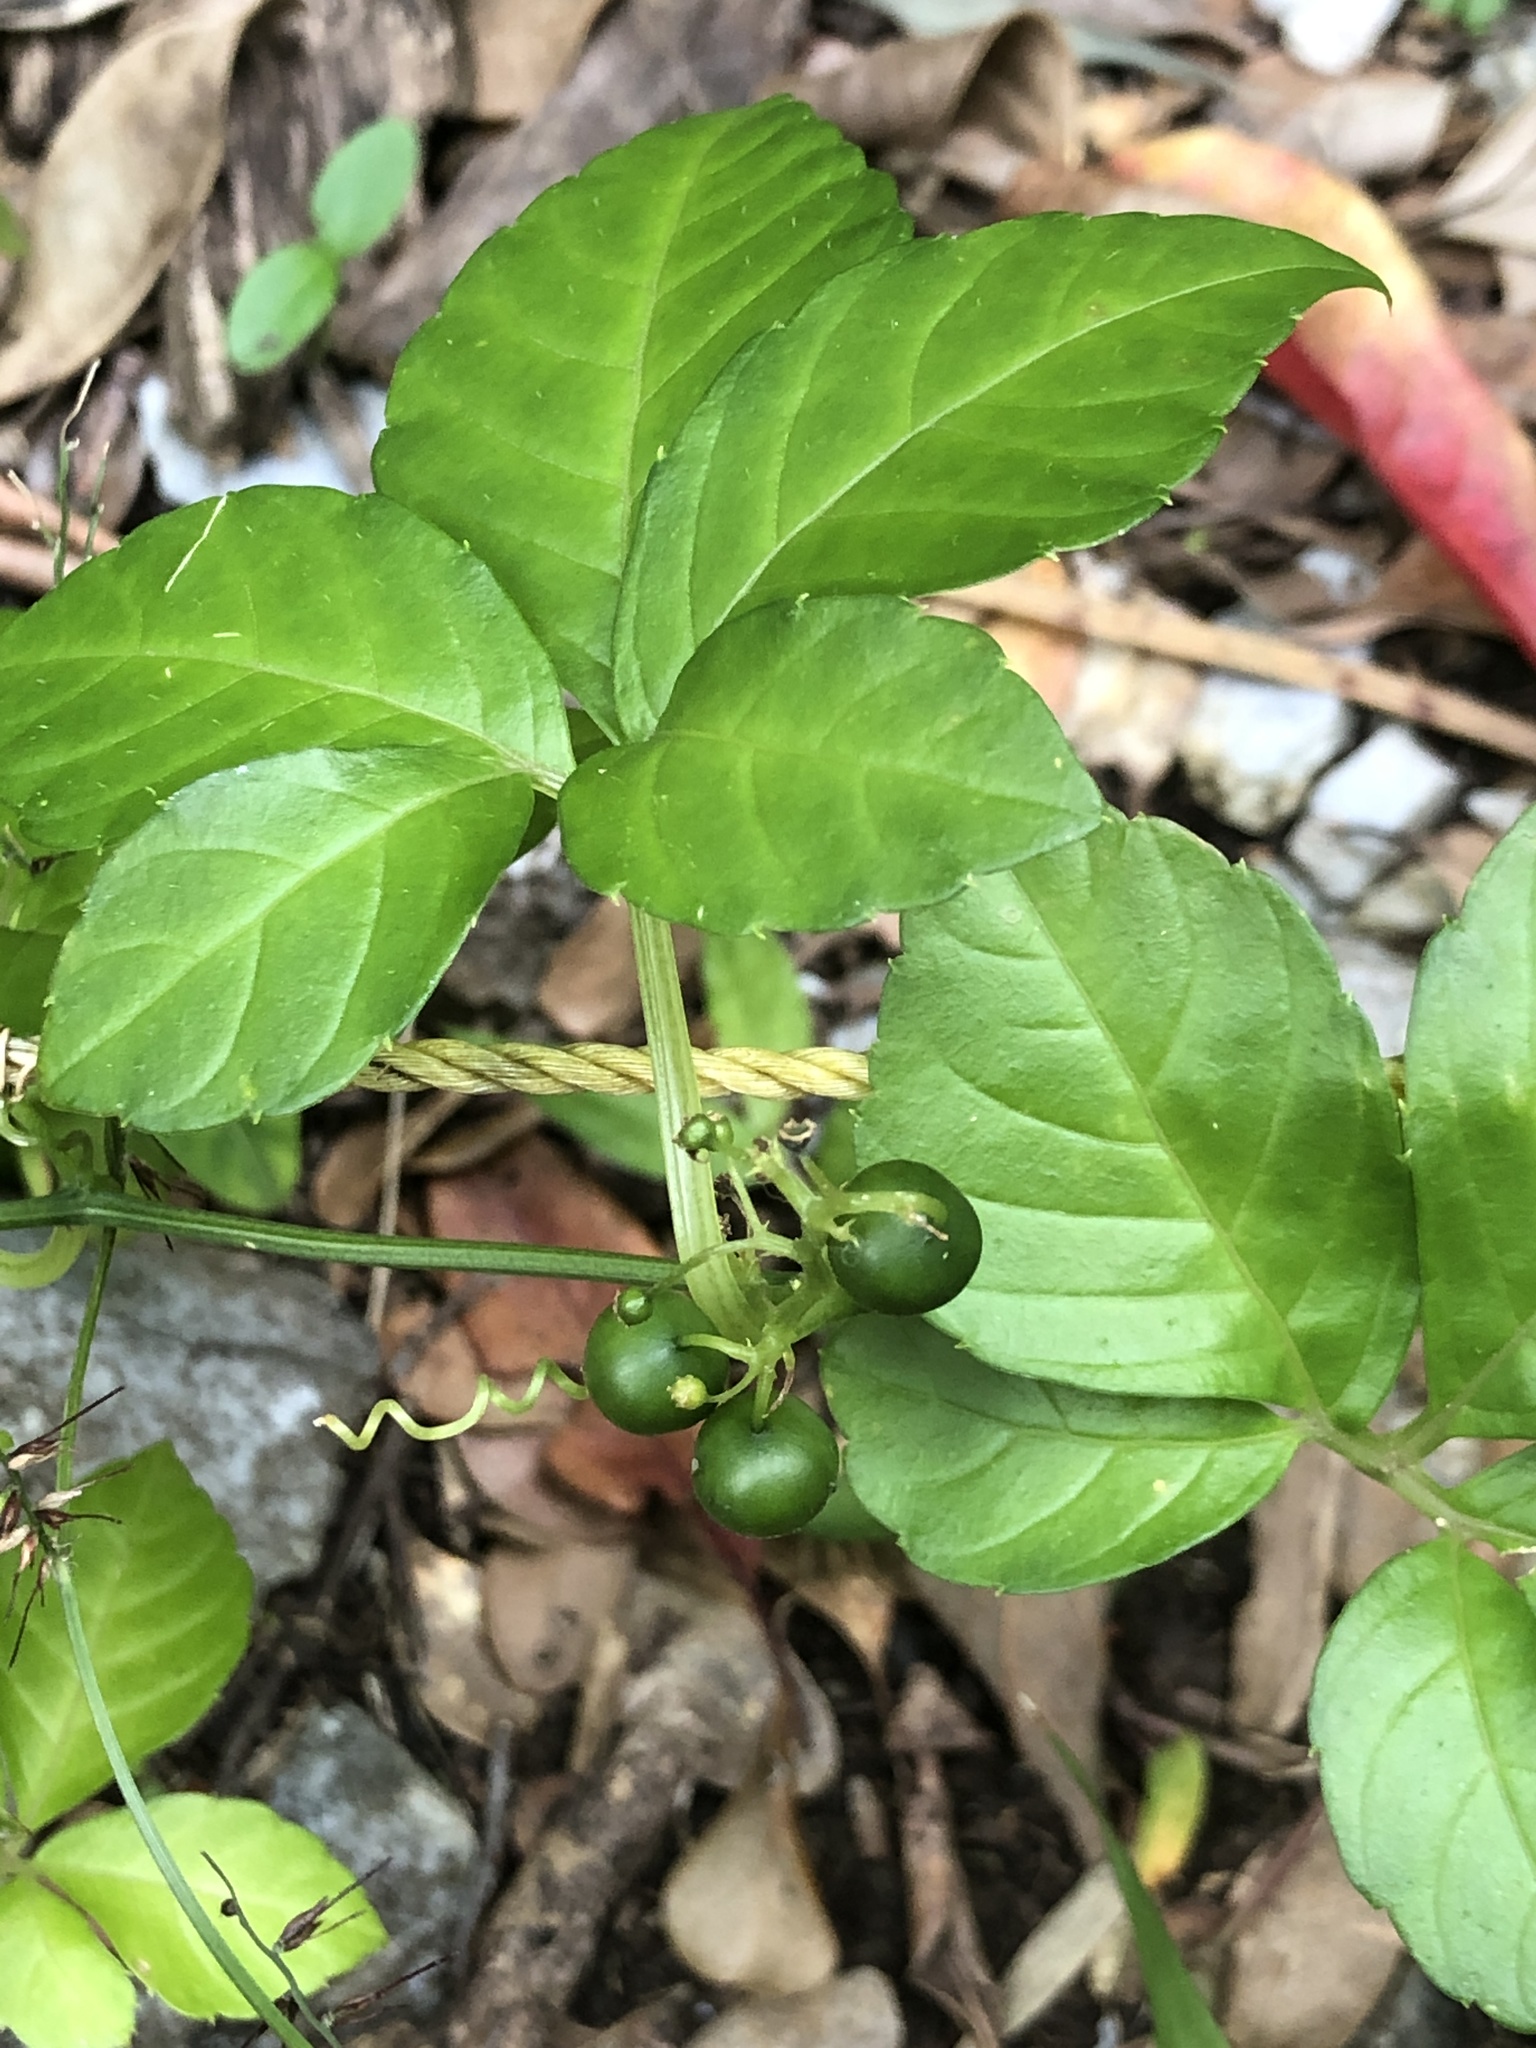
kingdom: Plantae
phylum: Tracheophyta
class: Magnoliopsida
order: Cucurbitales
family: Cucurbitaceae
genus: Gynostemma
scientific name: Gynostemma pentaphyllum
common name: Gynostemma
